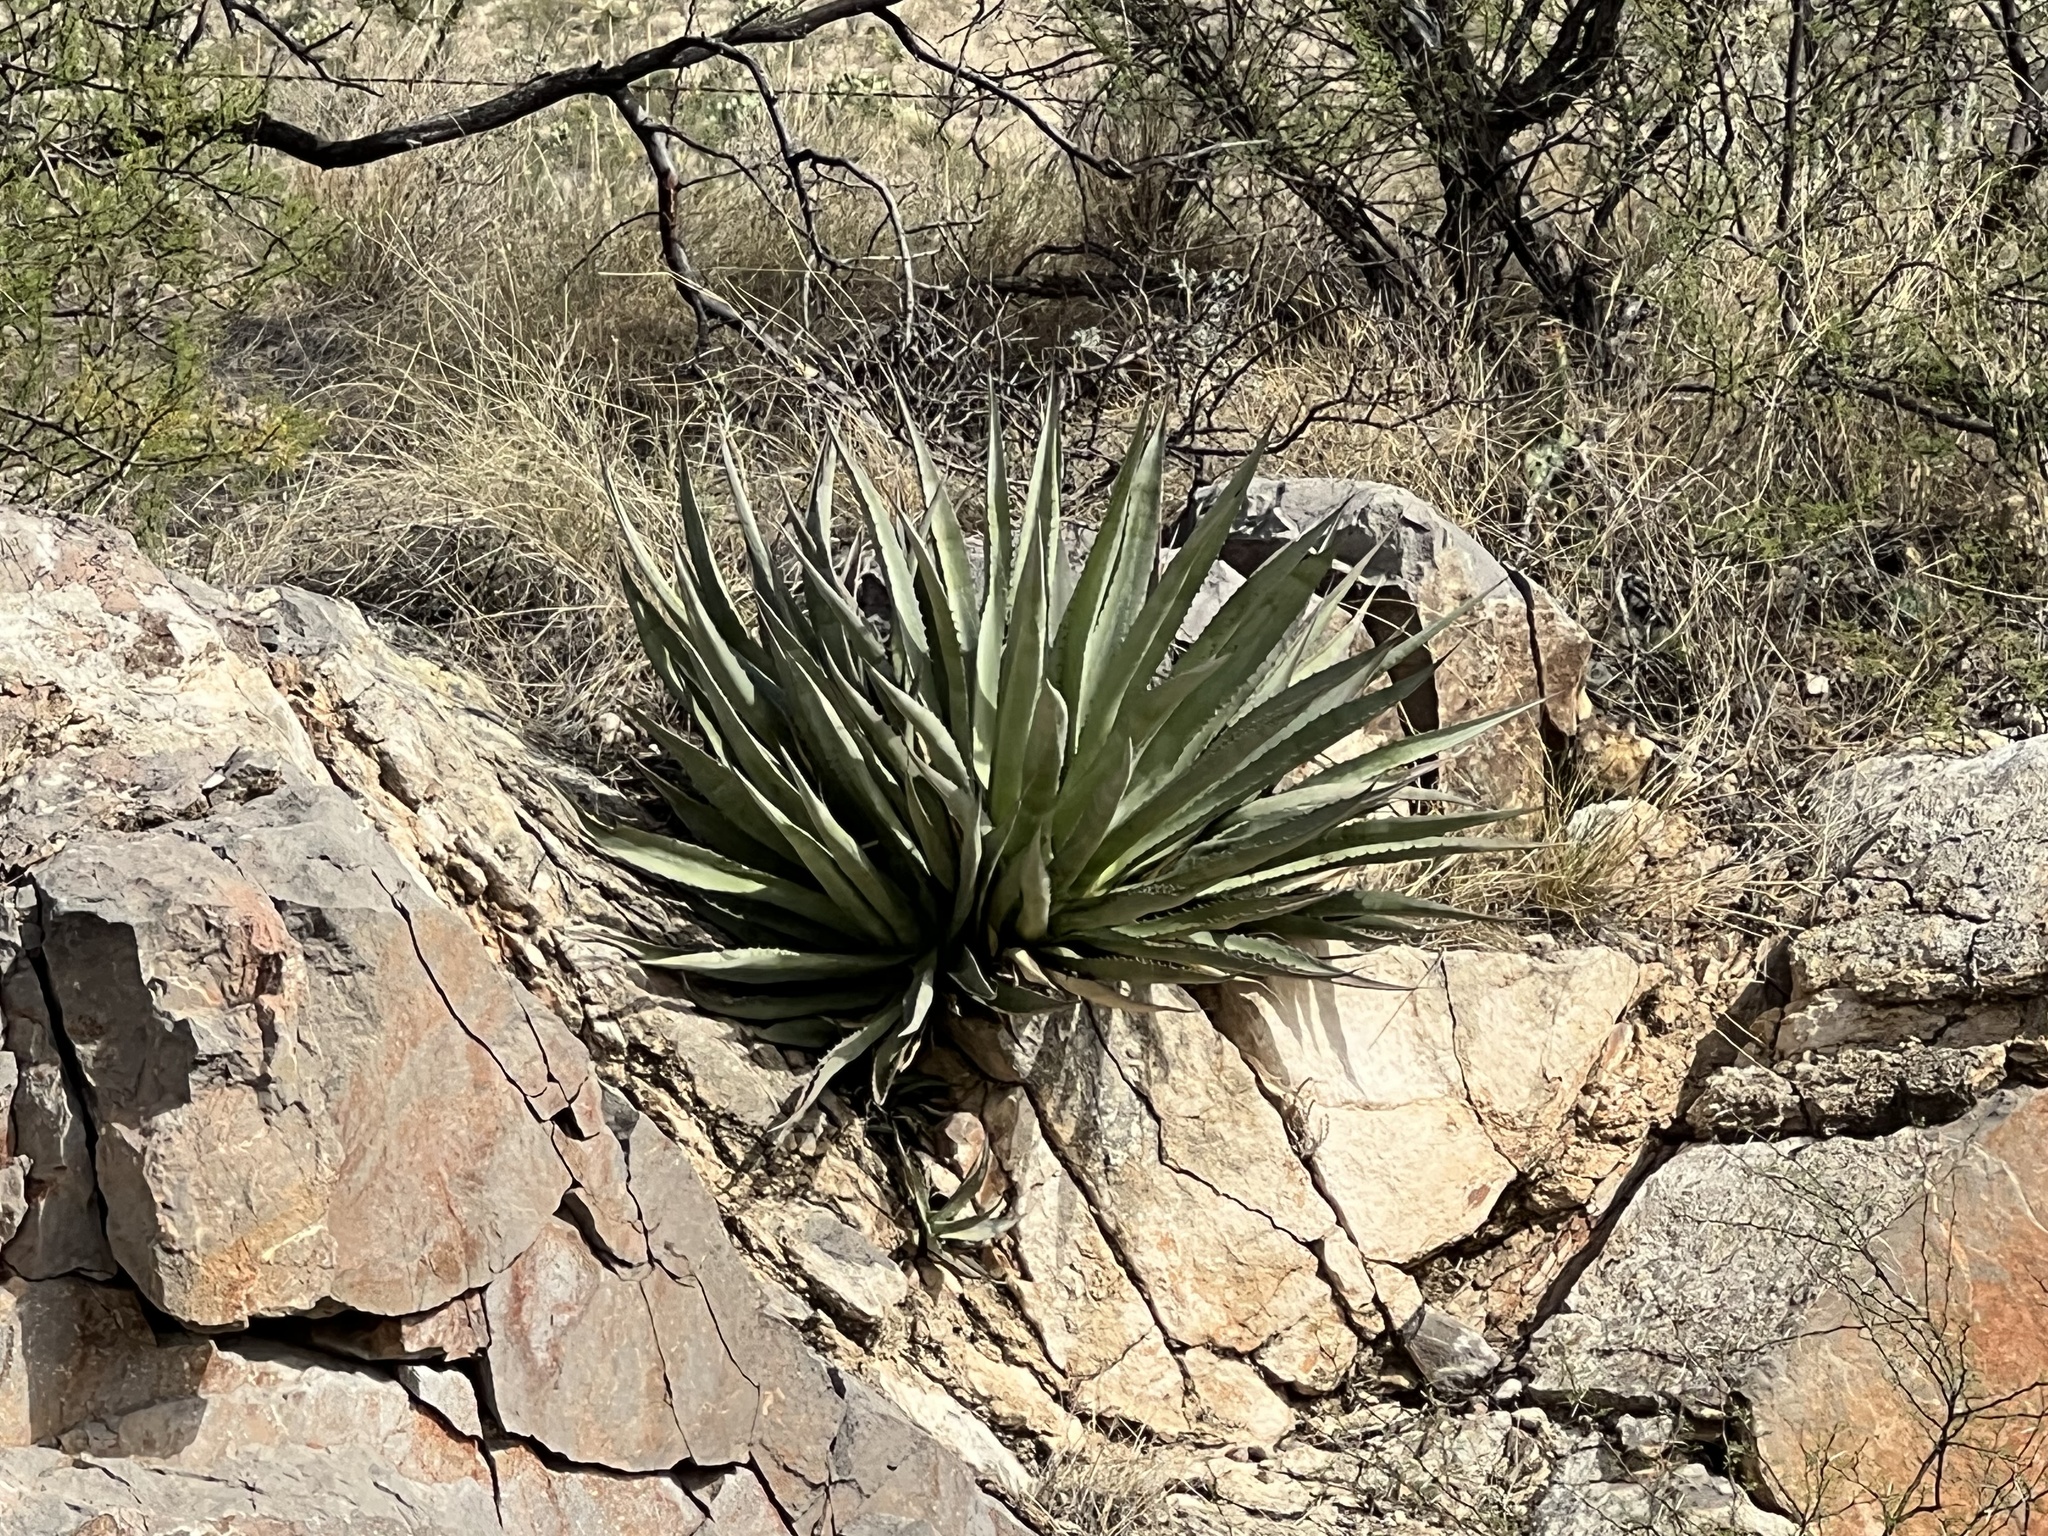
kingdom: Plantae
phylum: Tracheophyta
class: Liliopsida
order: Asparagales
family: Asparagaceae
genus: Agave
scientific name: Agave palmeri
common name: Palmer agave
